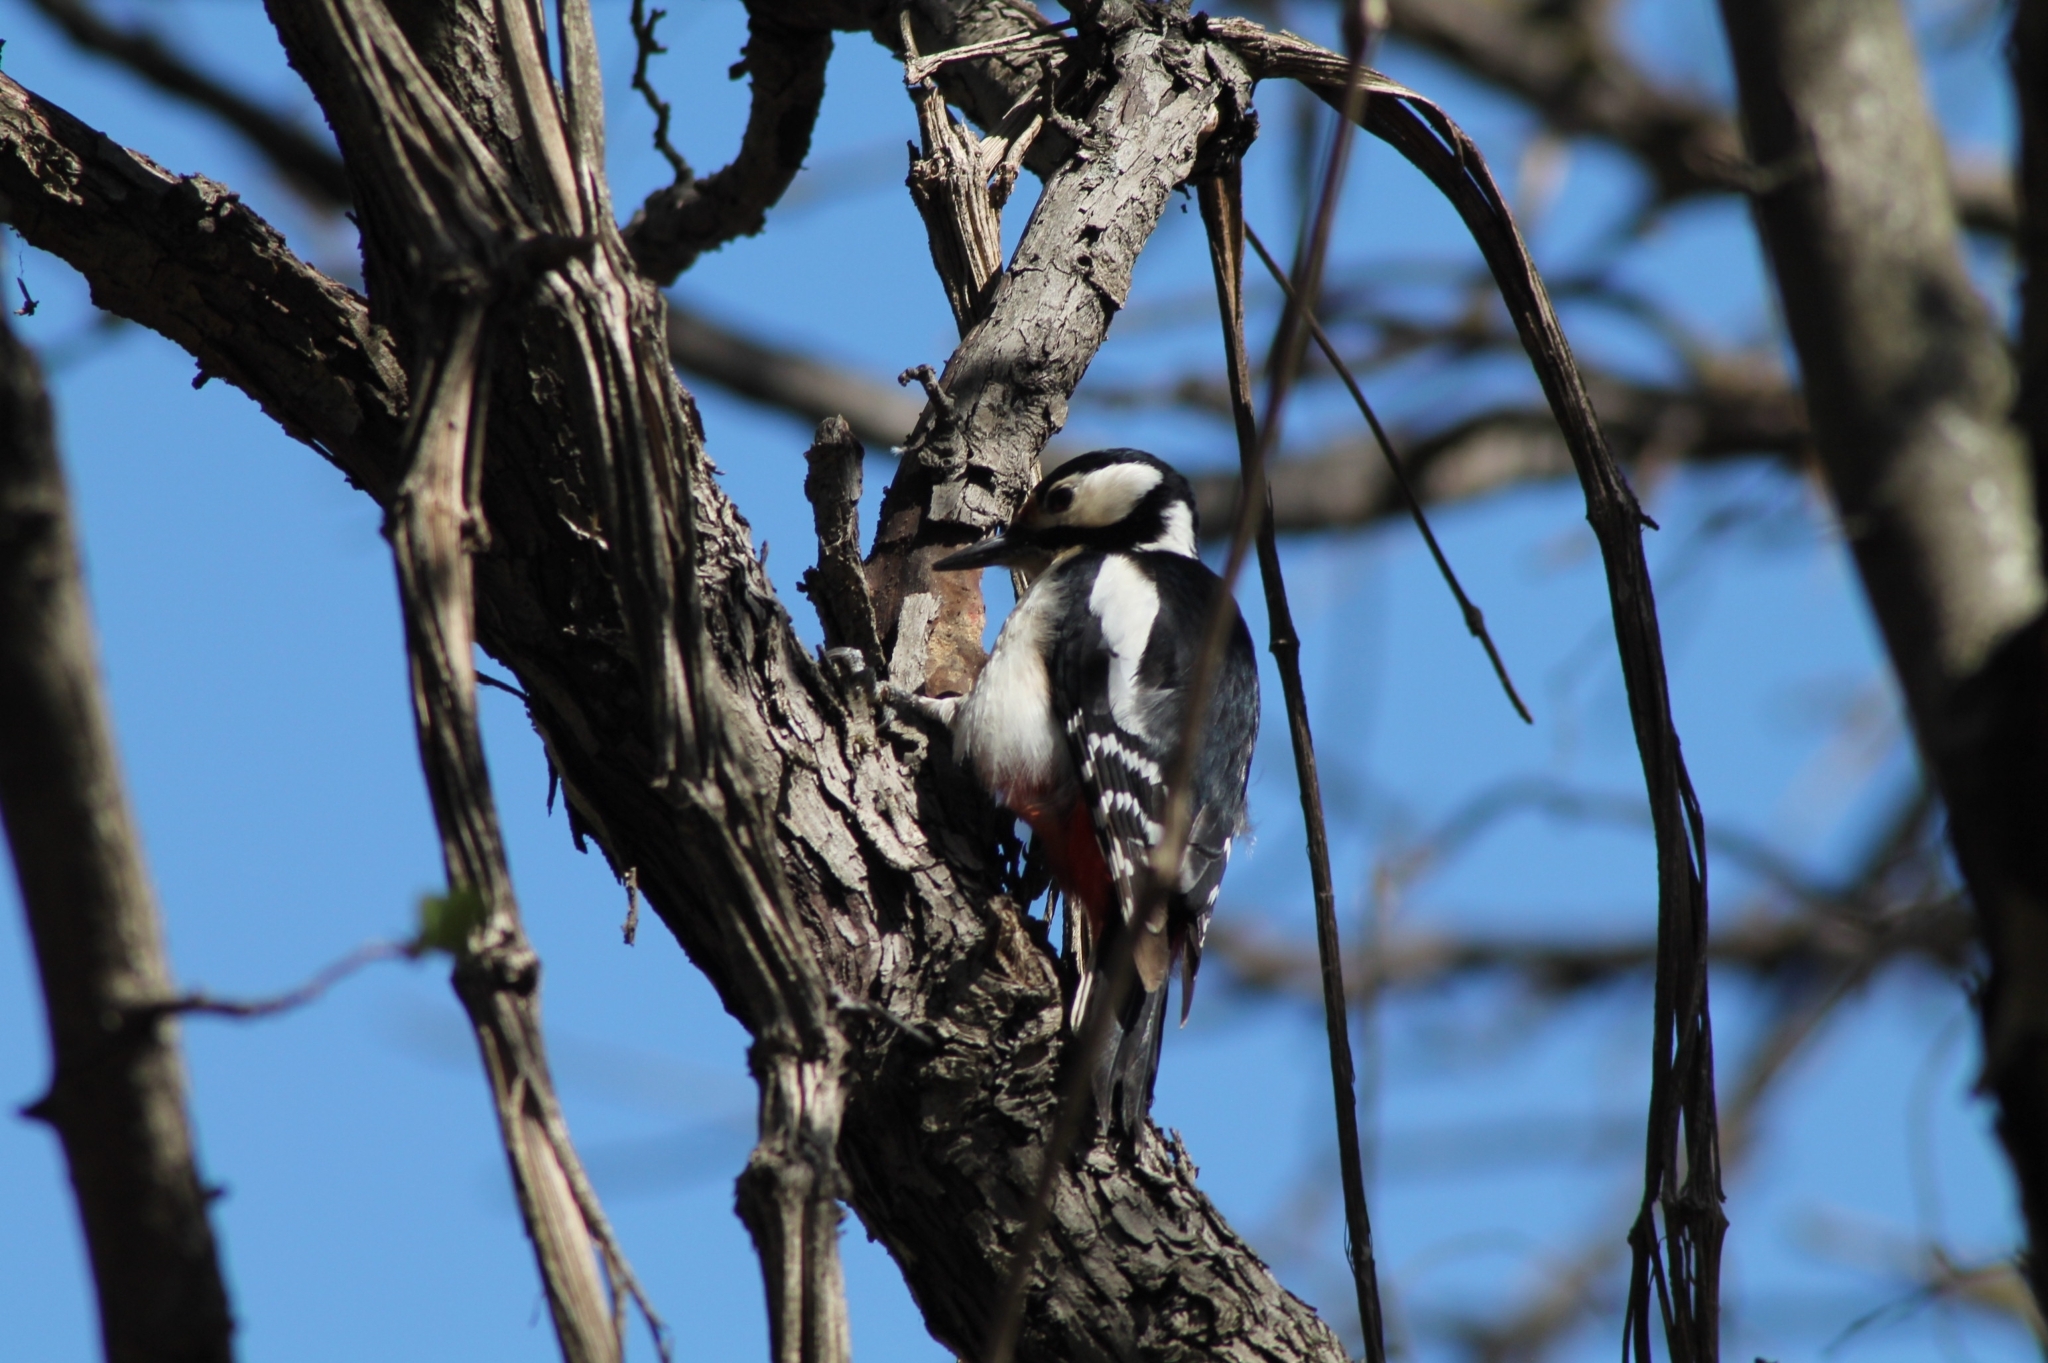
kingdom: Animalia
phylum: Chordata
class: Aves
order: Piciformes
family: Picidae
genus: Dendrocopos
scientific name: Dendrocopos major
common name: Great spotted woodpecker
